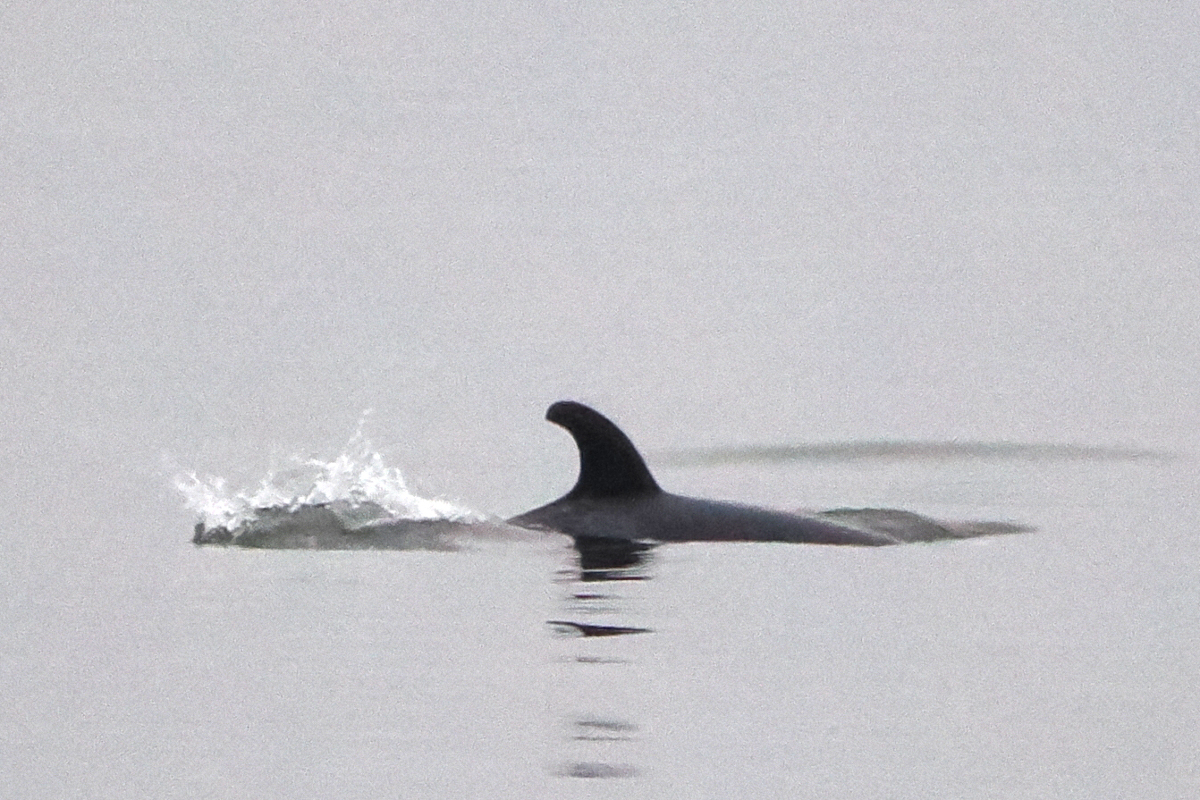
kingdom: Animalia
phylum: Chordata
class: Mammalia
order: Cetacea
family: Delphinidae
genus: Orcinus
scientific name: Orcinus orca
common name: Killer whale
